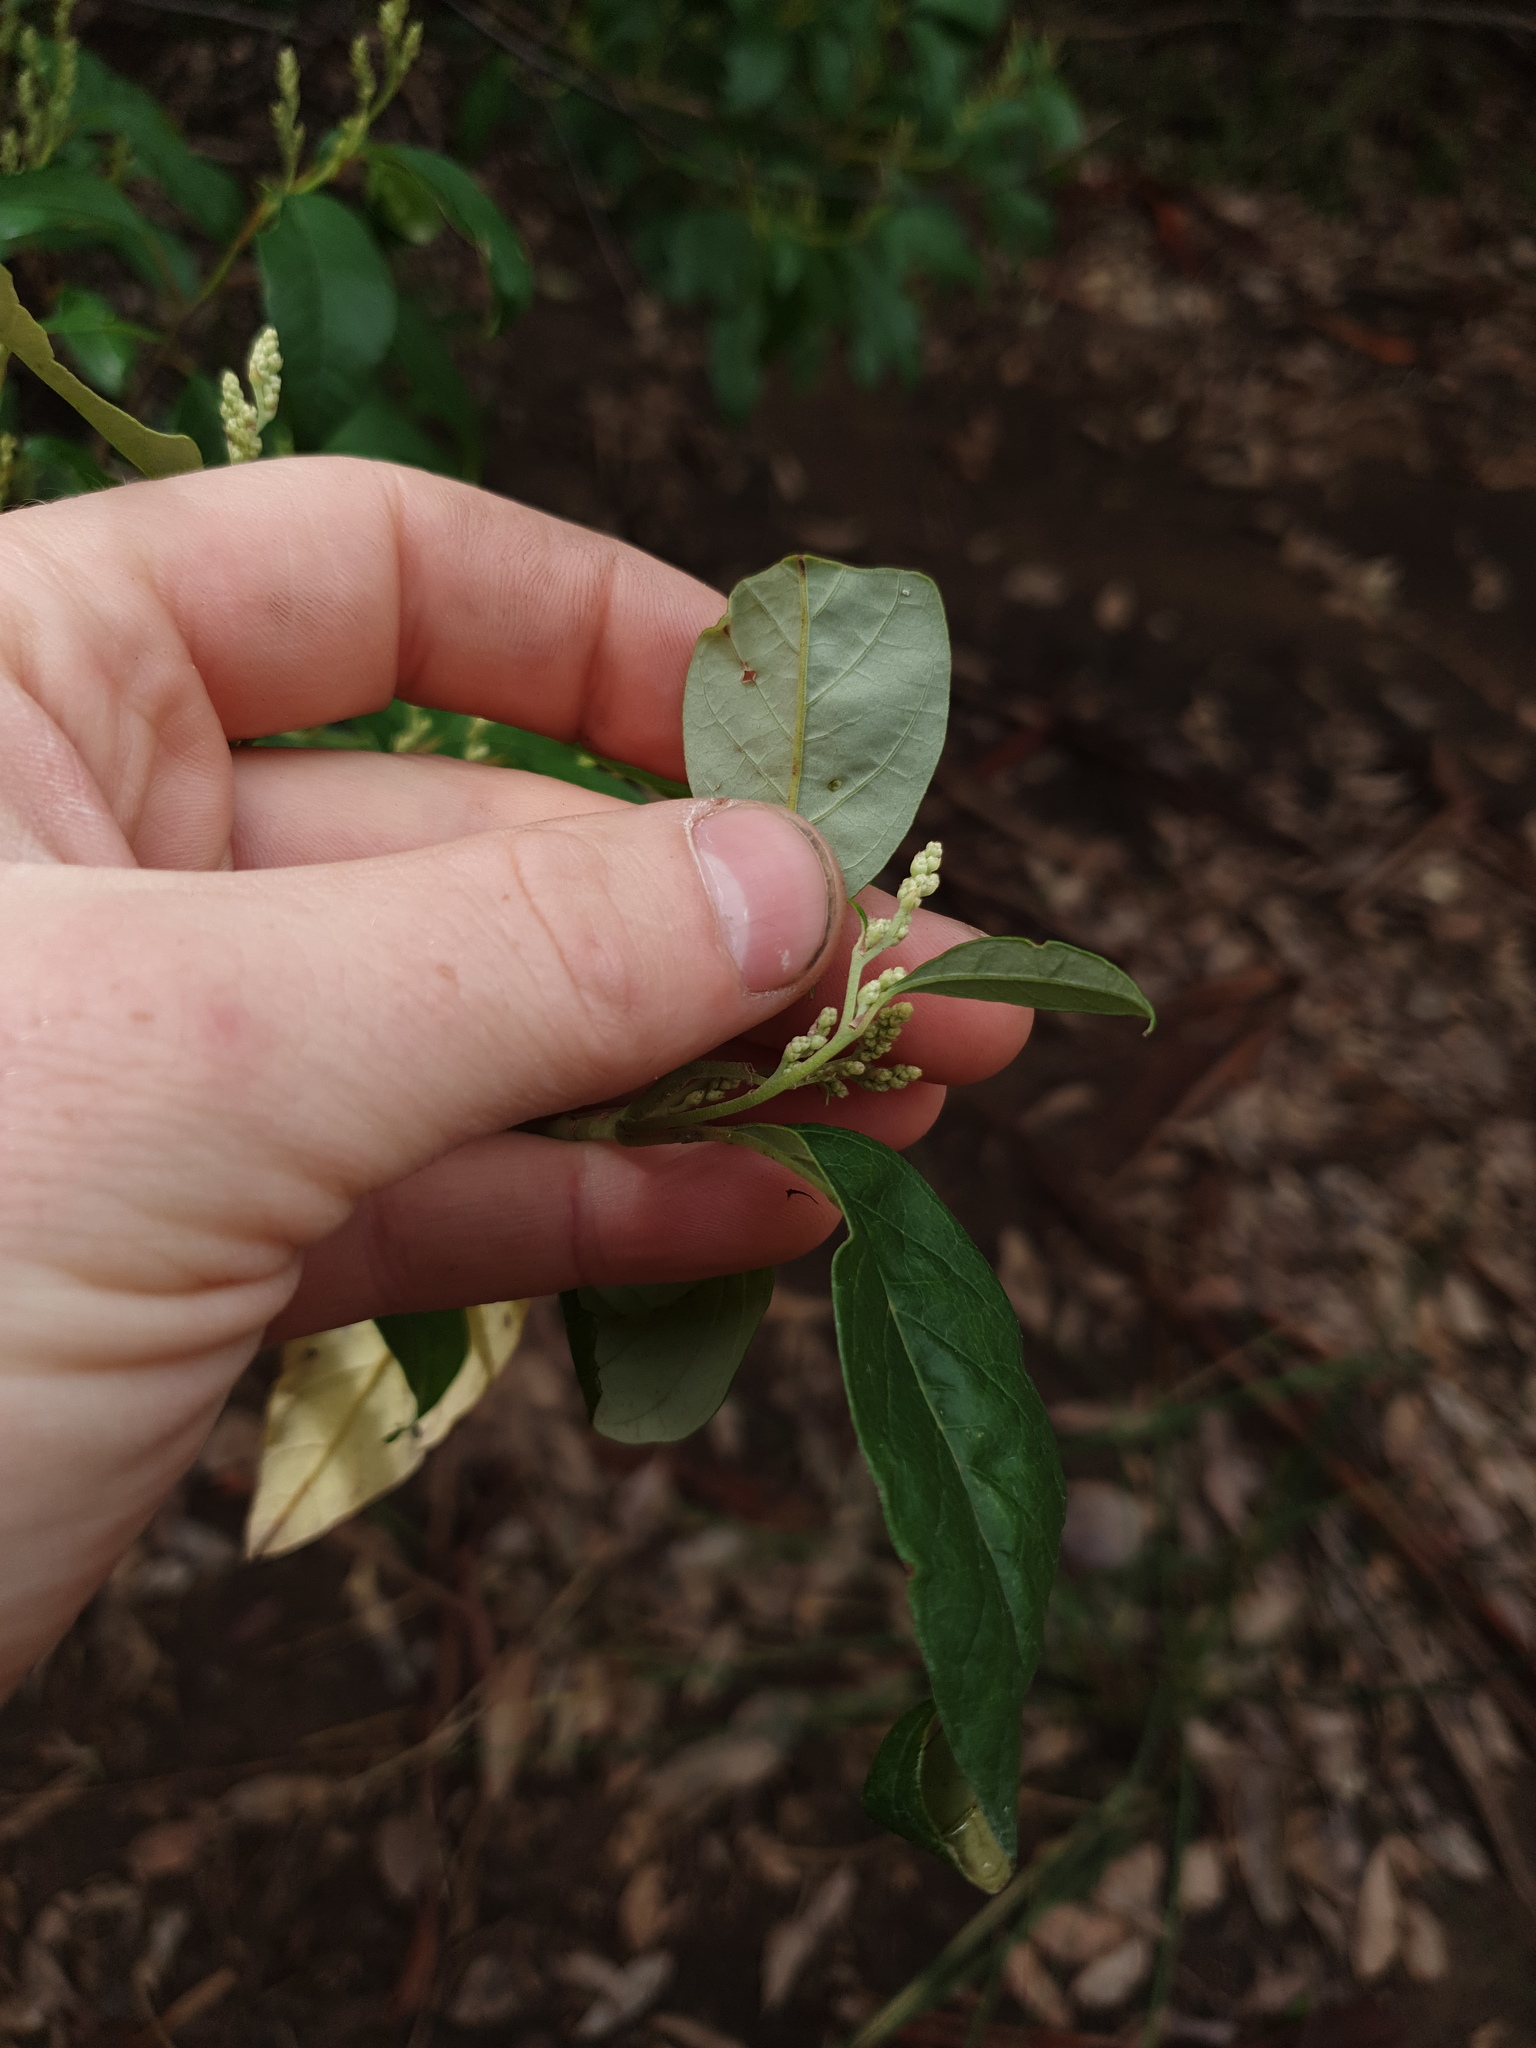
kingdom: Plantae
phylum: Tracheophyta
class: Magnoliopsida
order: Rosales
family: Rhamnaceae
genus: Trymalium
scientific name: Trymalium odoratissimum
